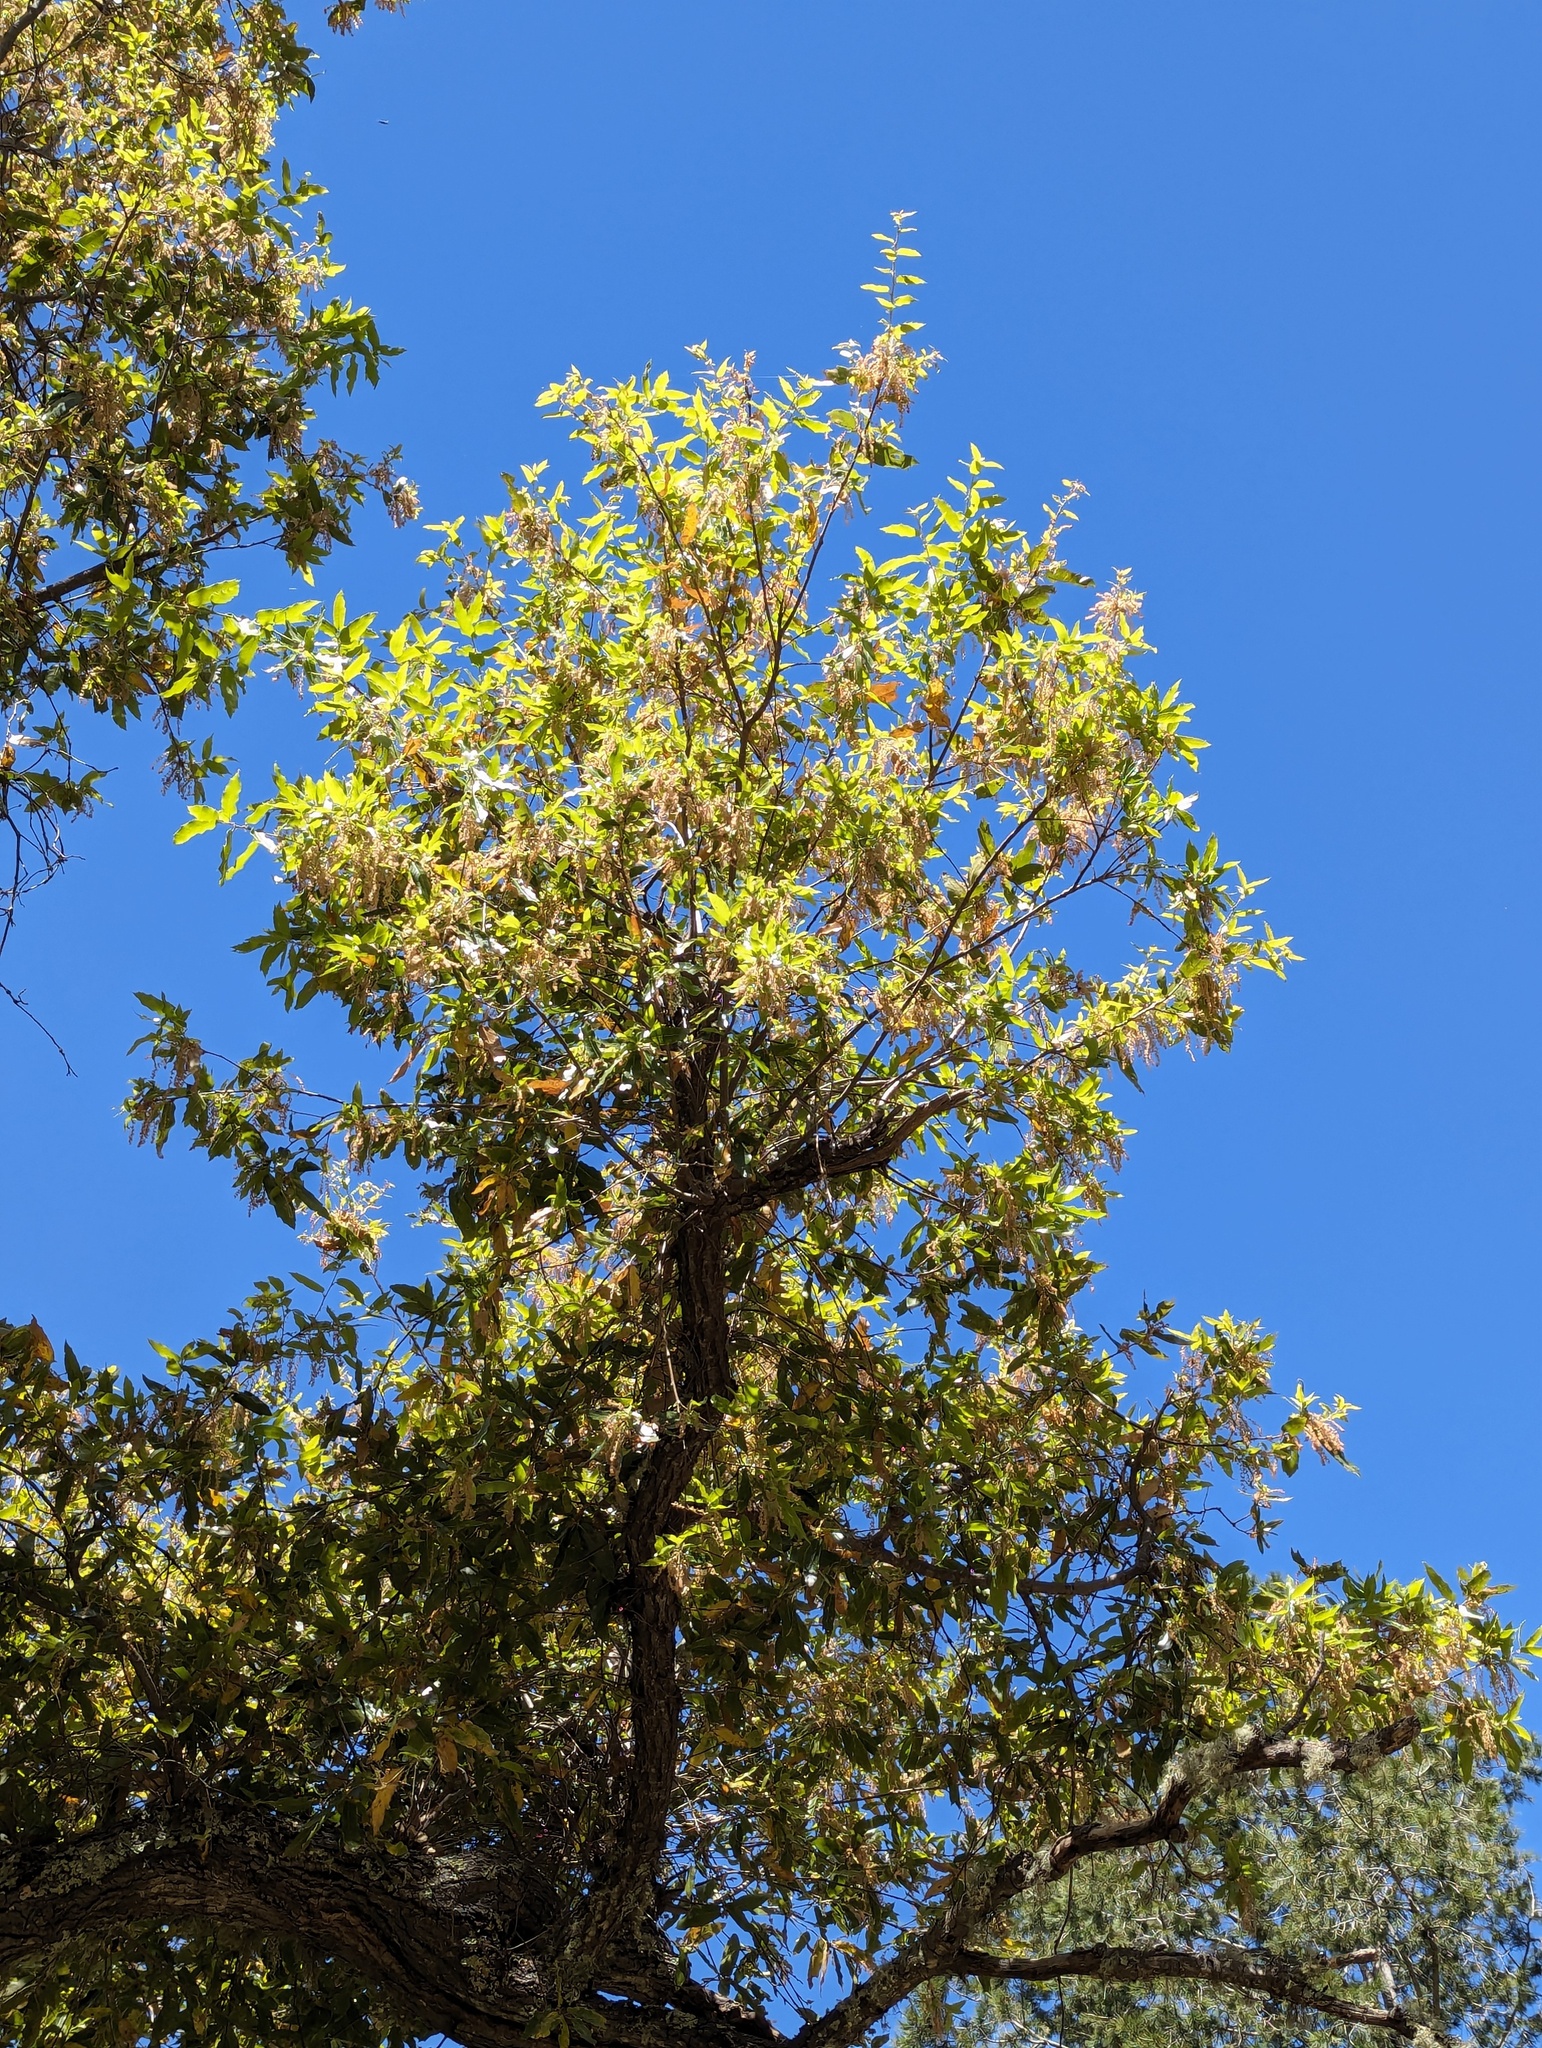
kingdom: Plantae
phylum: Tracheophyta
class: Magnoliopsida
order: Fagales
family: Fagaceae
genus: Quercus
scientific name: Quercus devia
